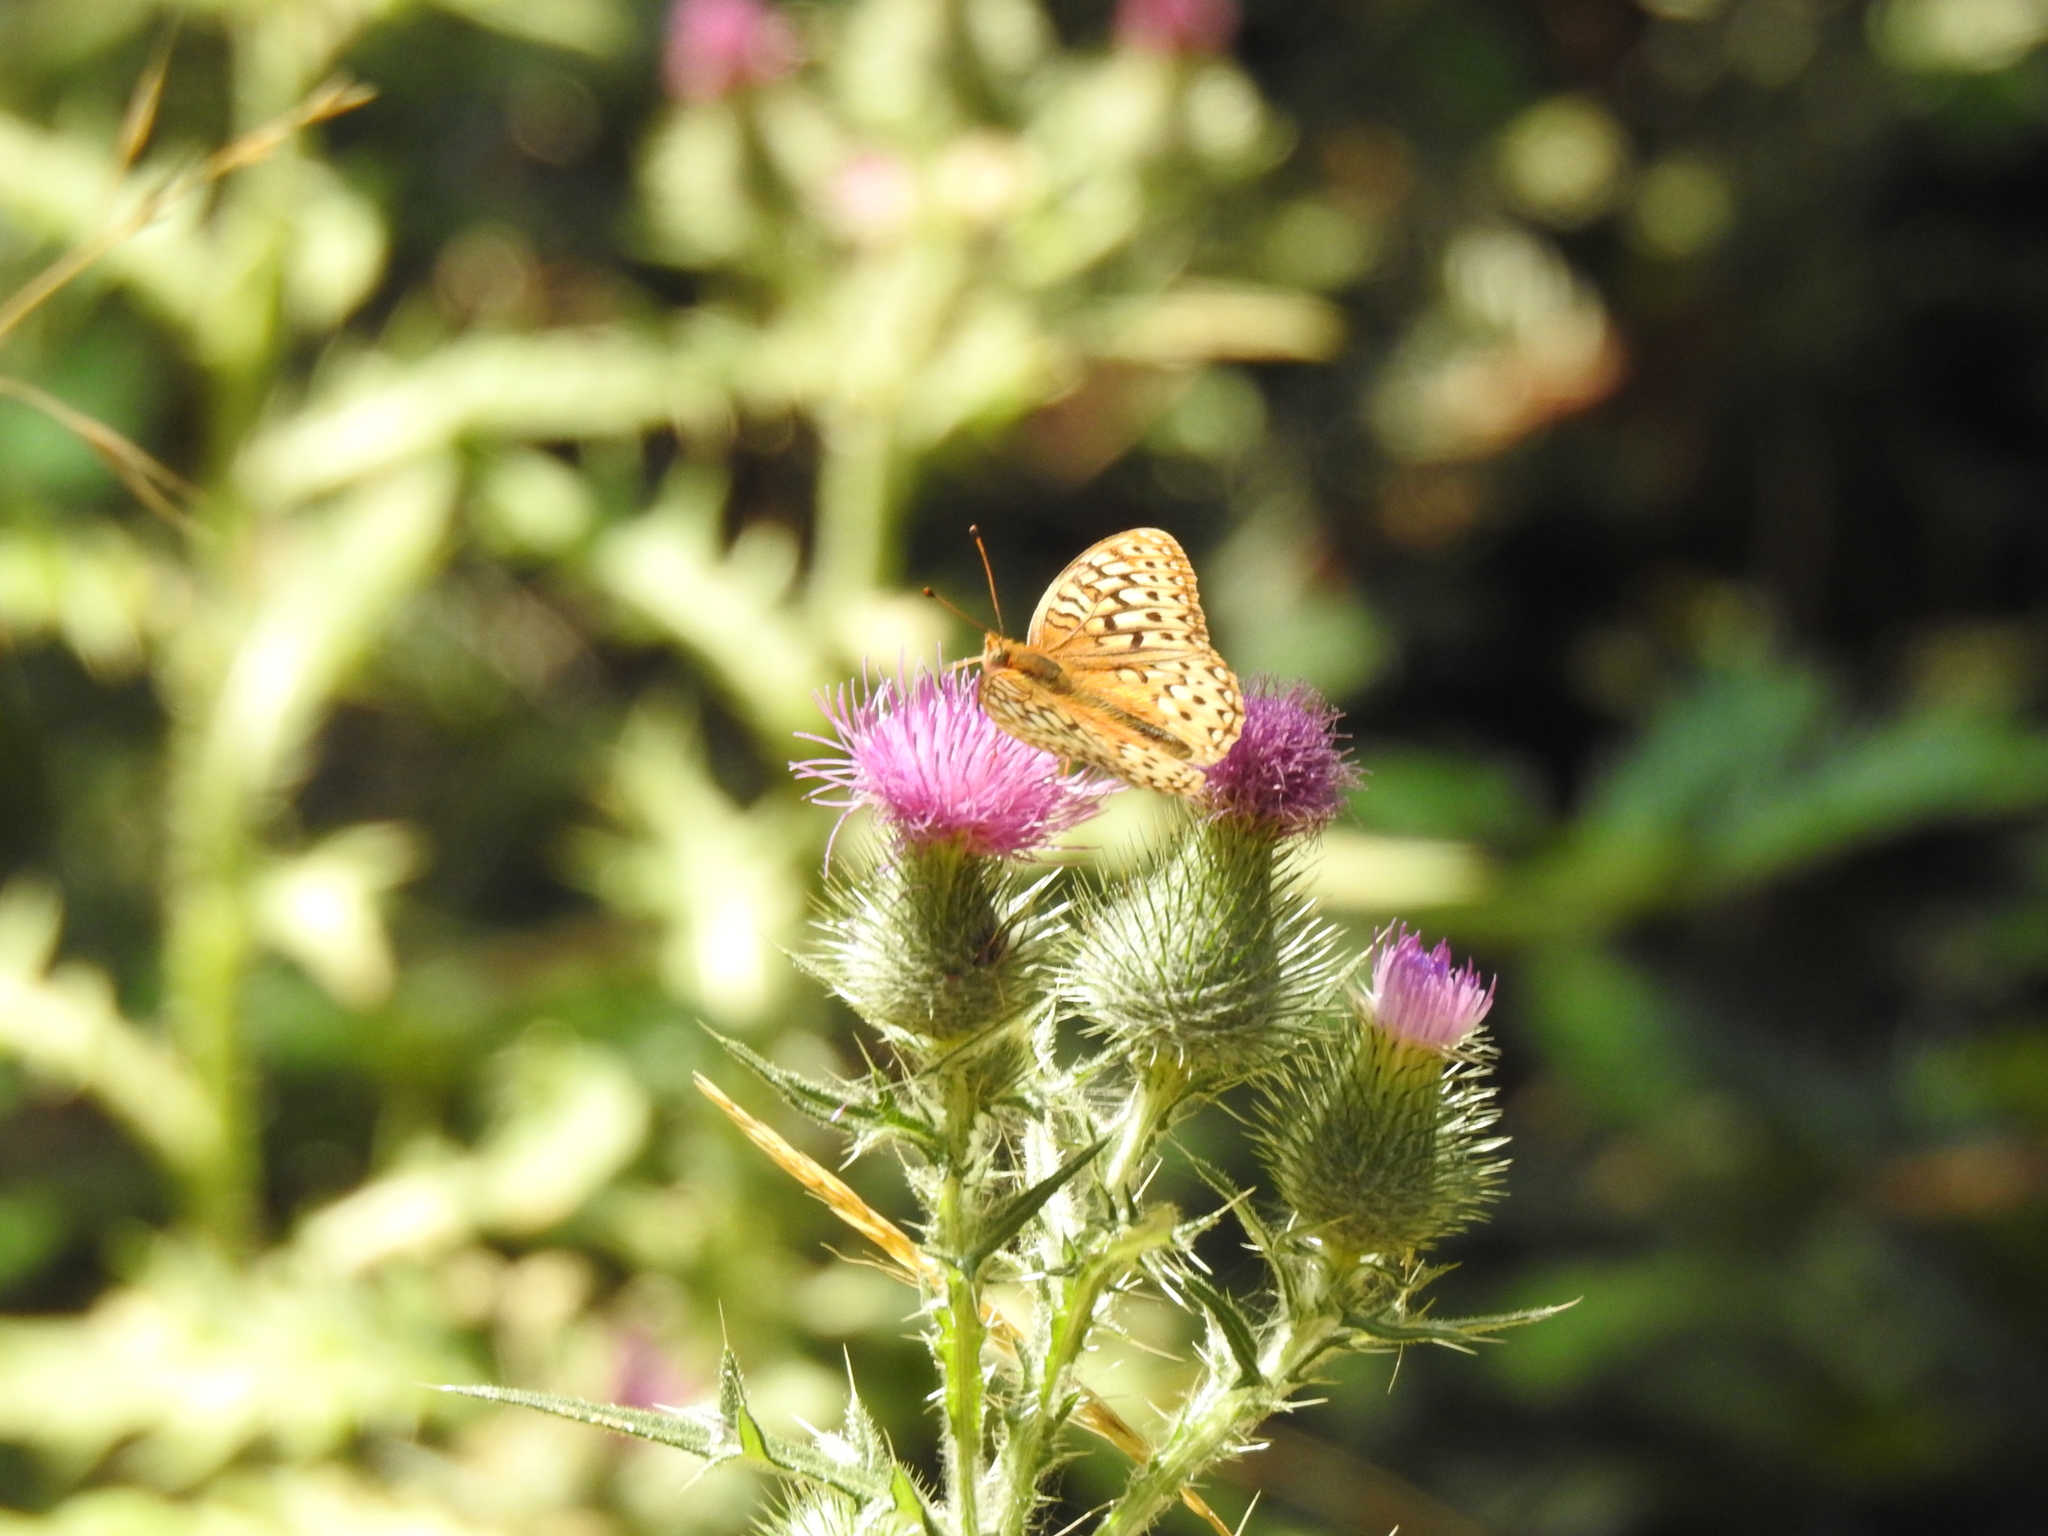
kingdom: Animalia
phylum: Arthropoda
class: Insecta
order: Lepidoptera
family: Nymphalidae
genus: Argynnis
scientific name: Argynnis coronis
